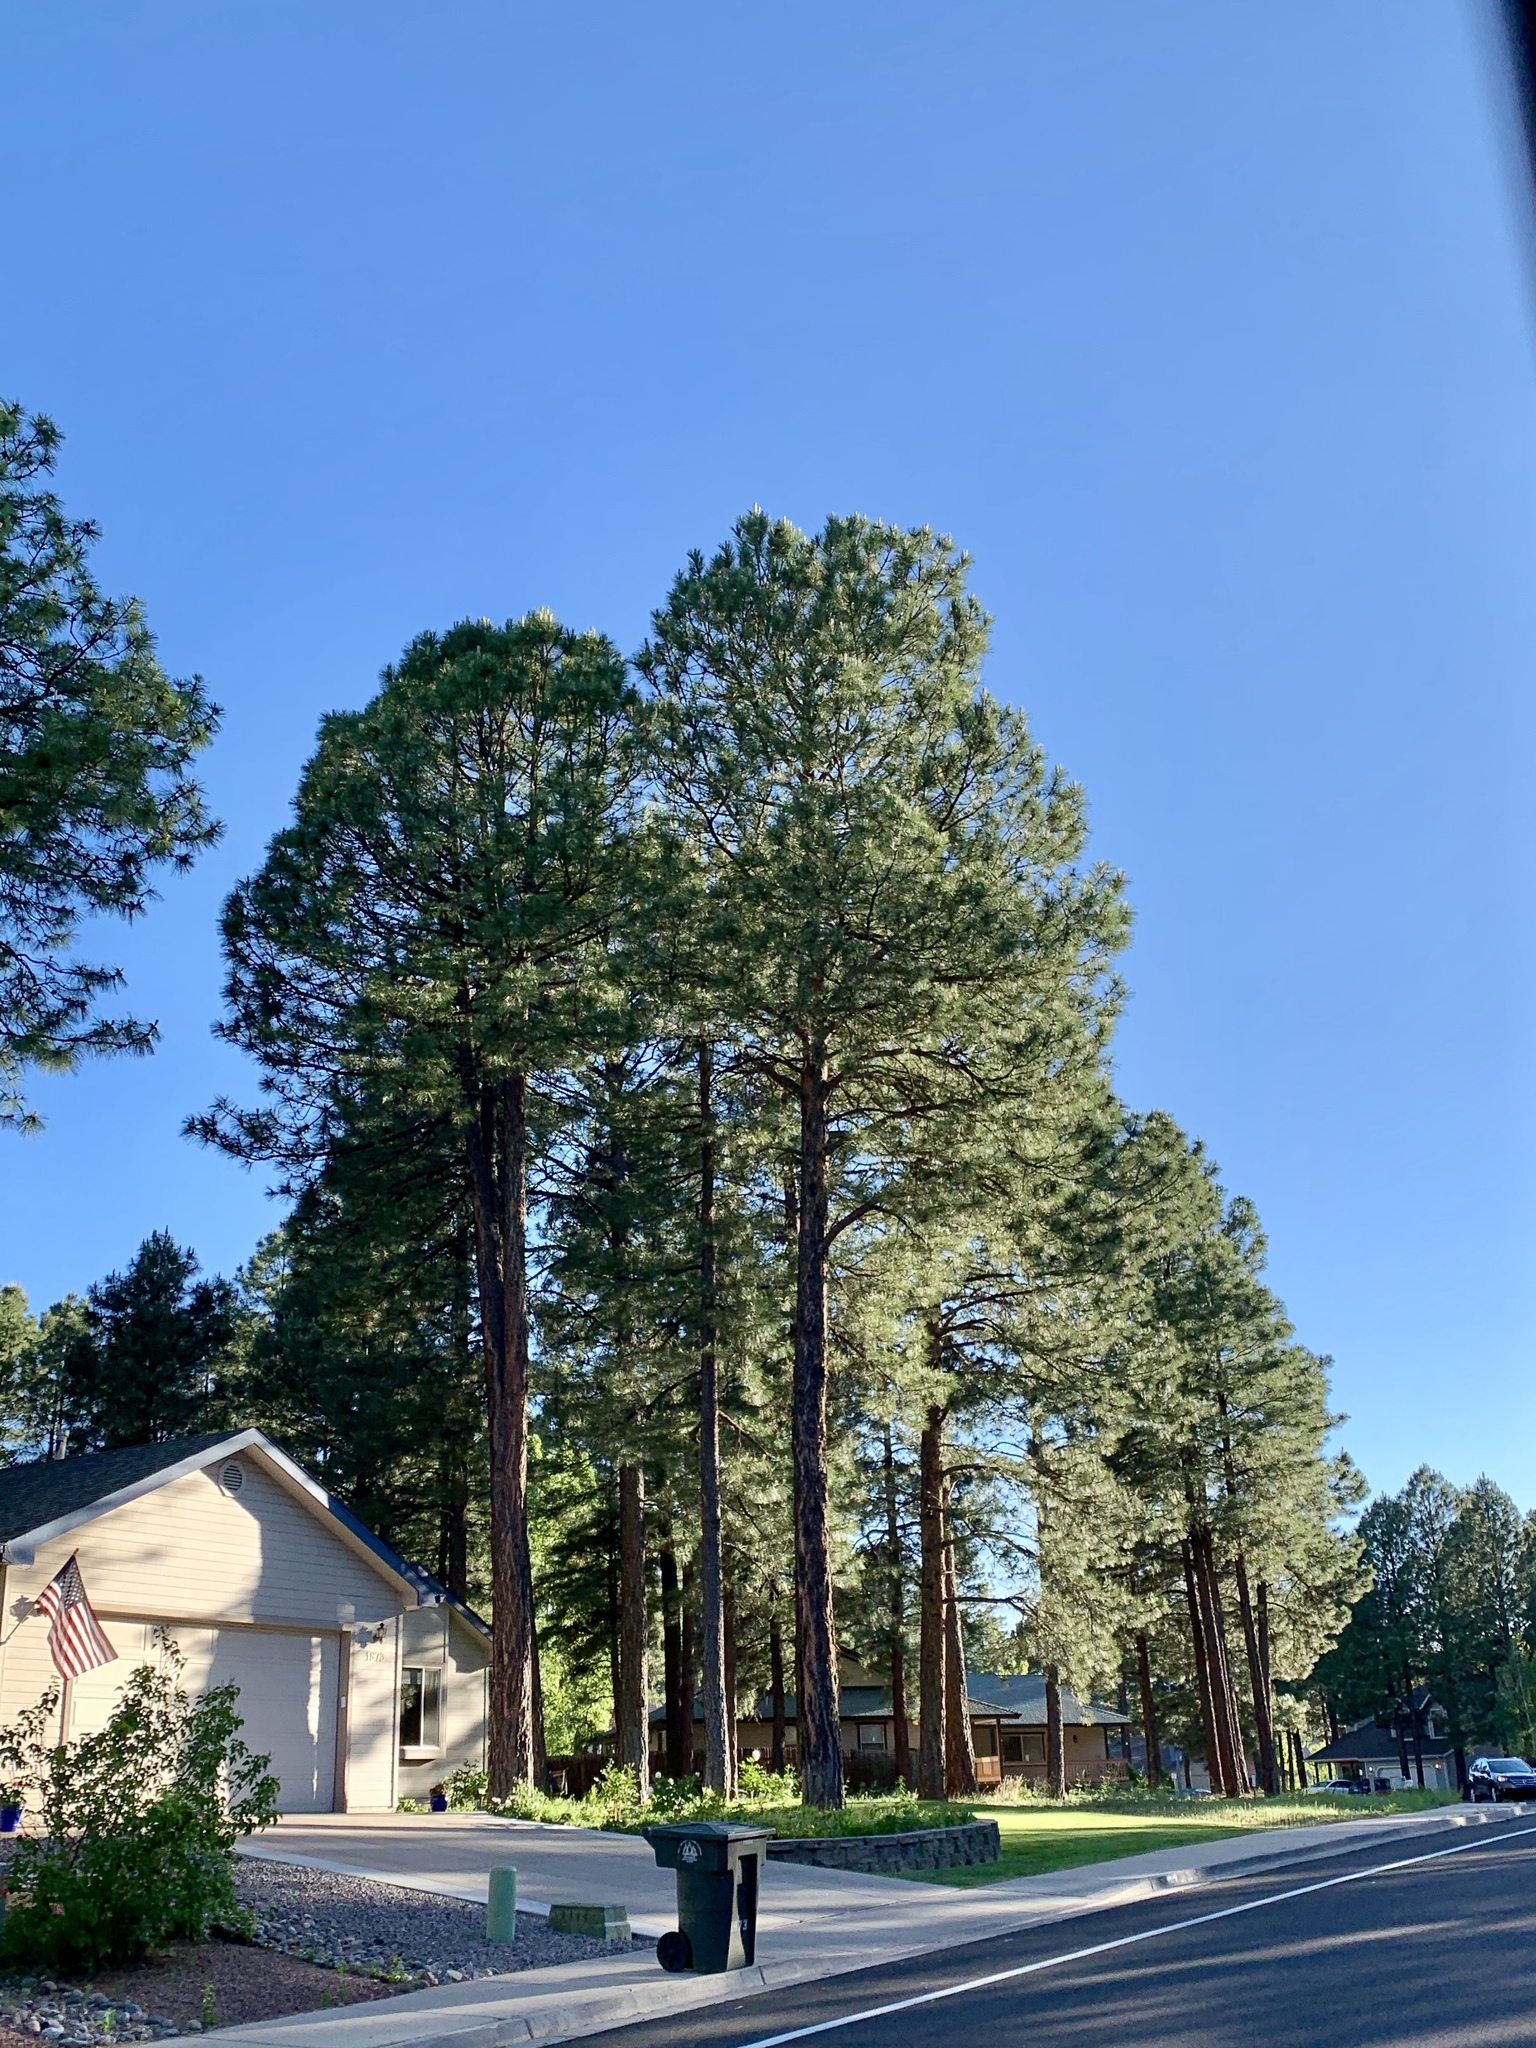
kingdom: Plantae
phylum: Tracheophyta
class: Pinopsida
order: Pinales
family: Pinaceae
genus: Pinus
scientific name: Pinus ponderosa
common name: Western yellow-pine
